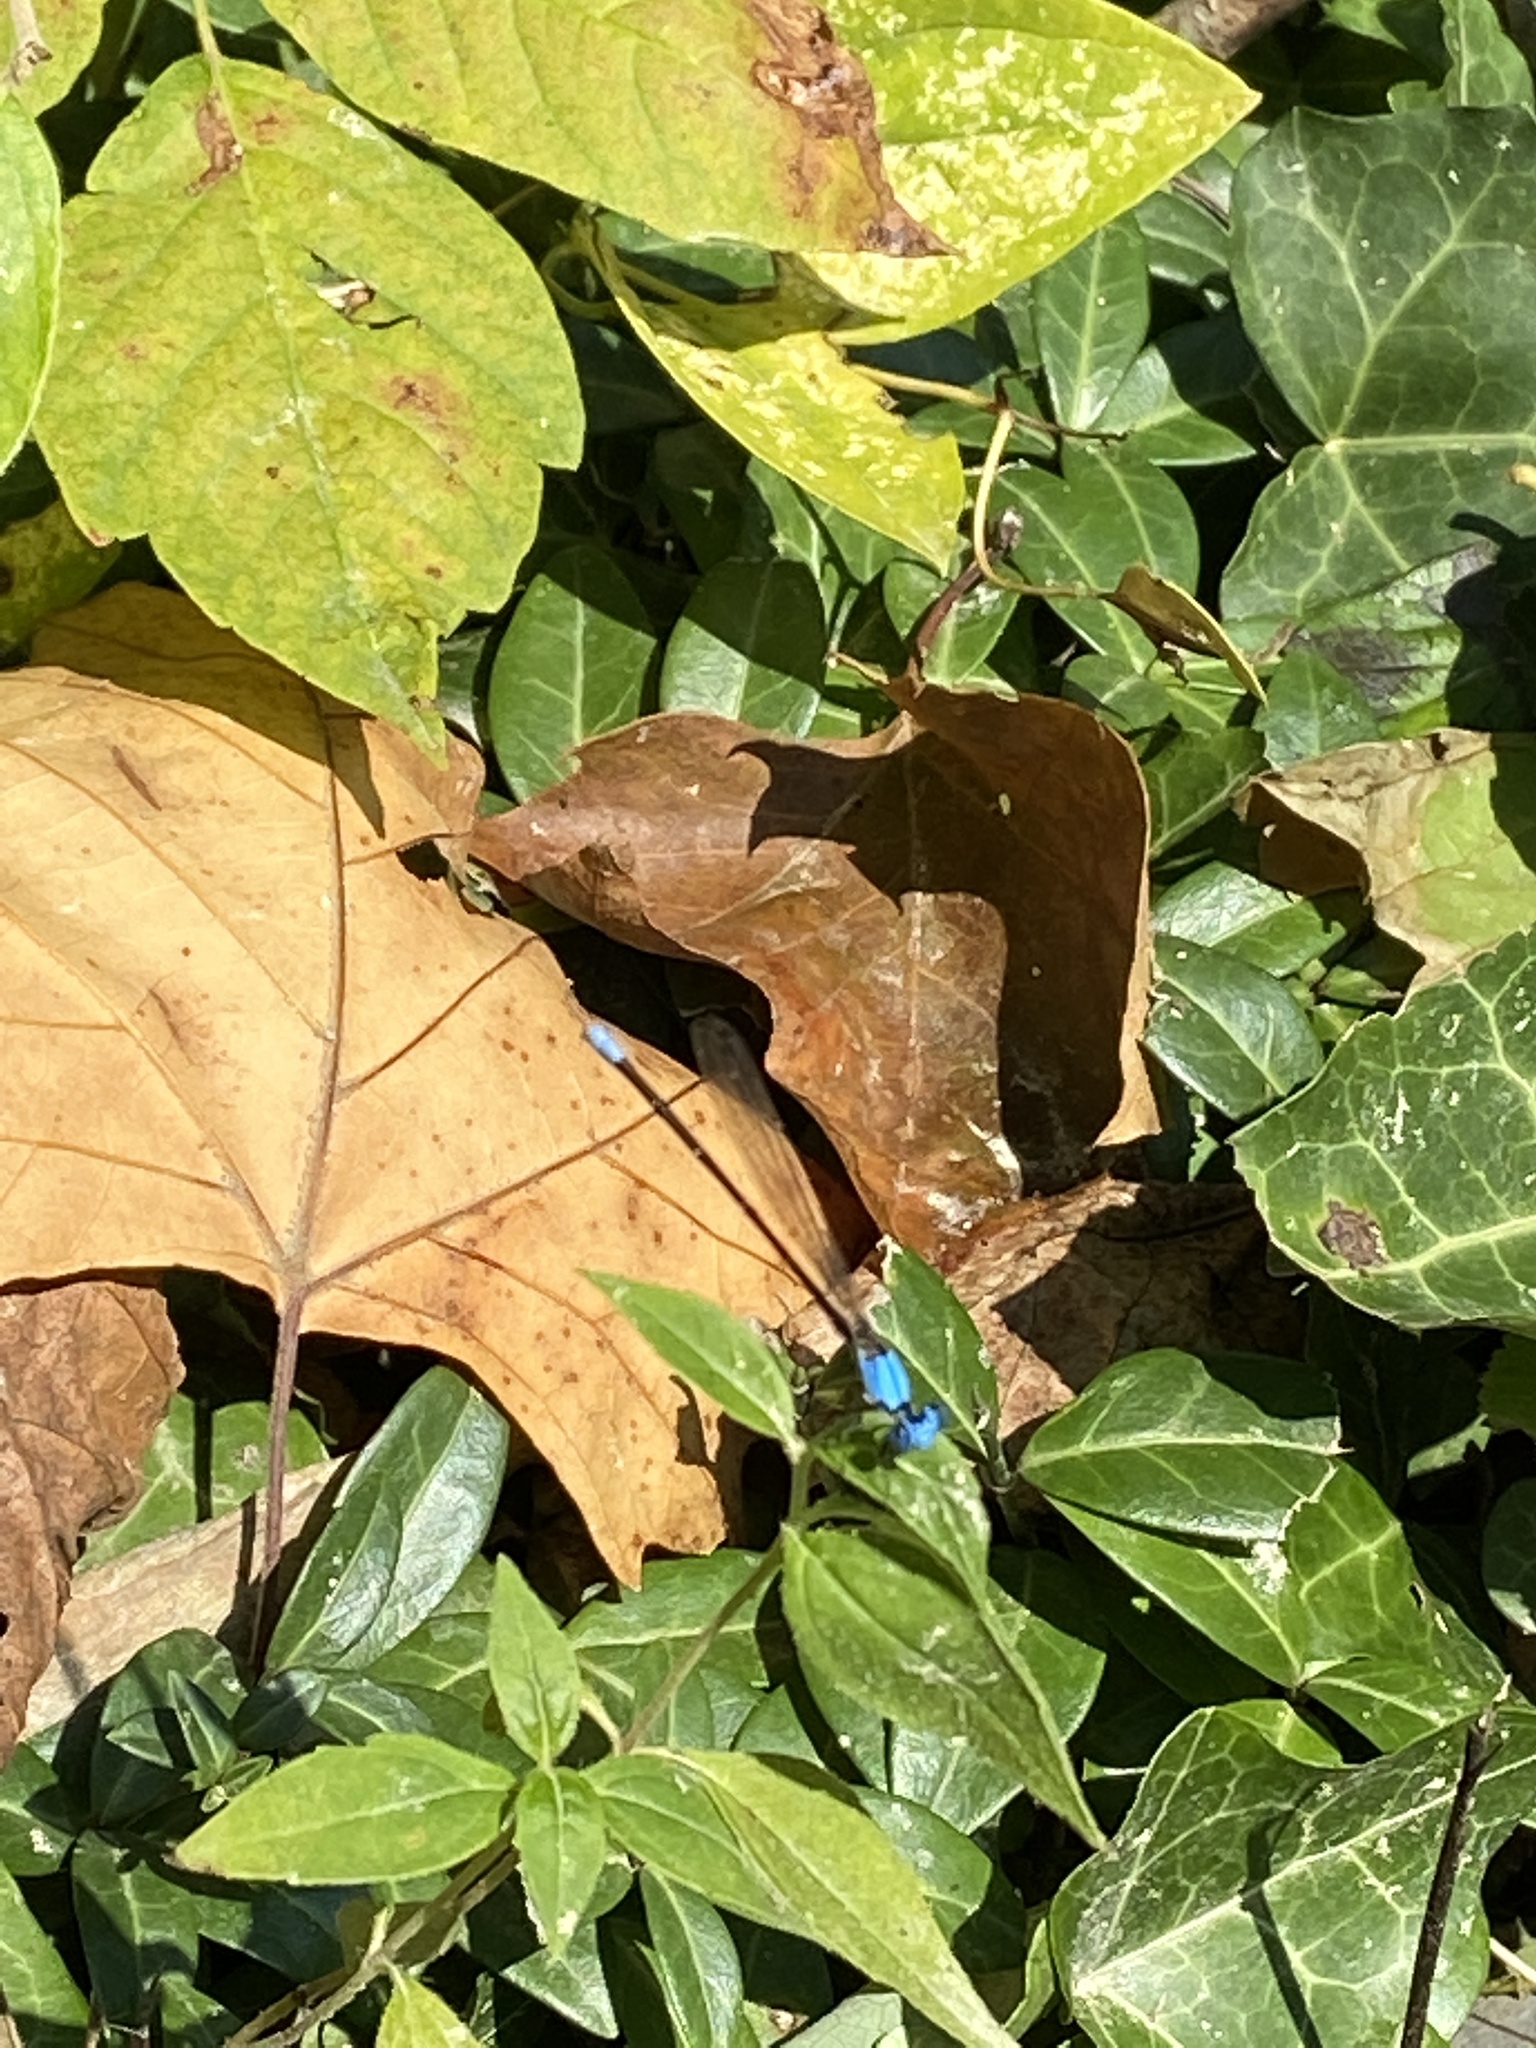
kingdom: Animalia
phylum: Arthropoda
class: Insecta
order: Odonata
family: Coenagrionidae
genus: Argia
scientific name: Argia apicalis
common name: Blue-fronted dancer
